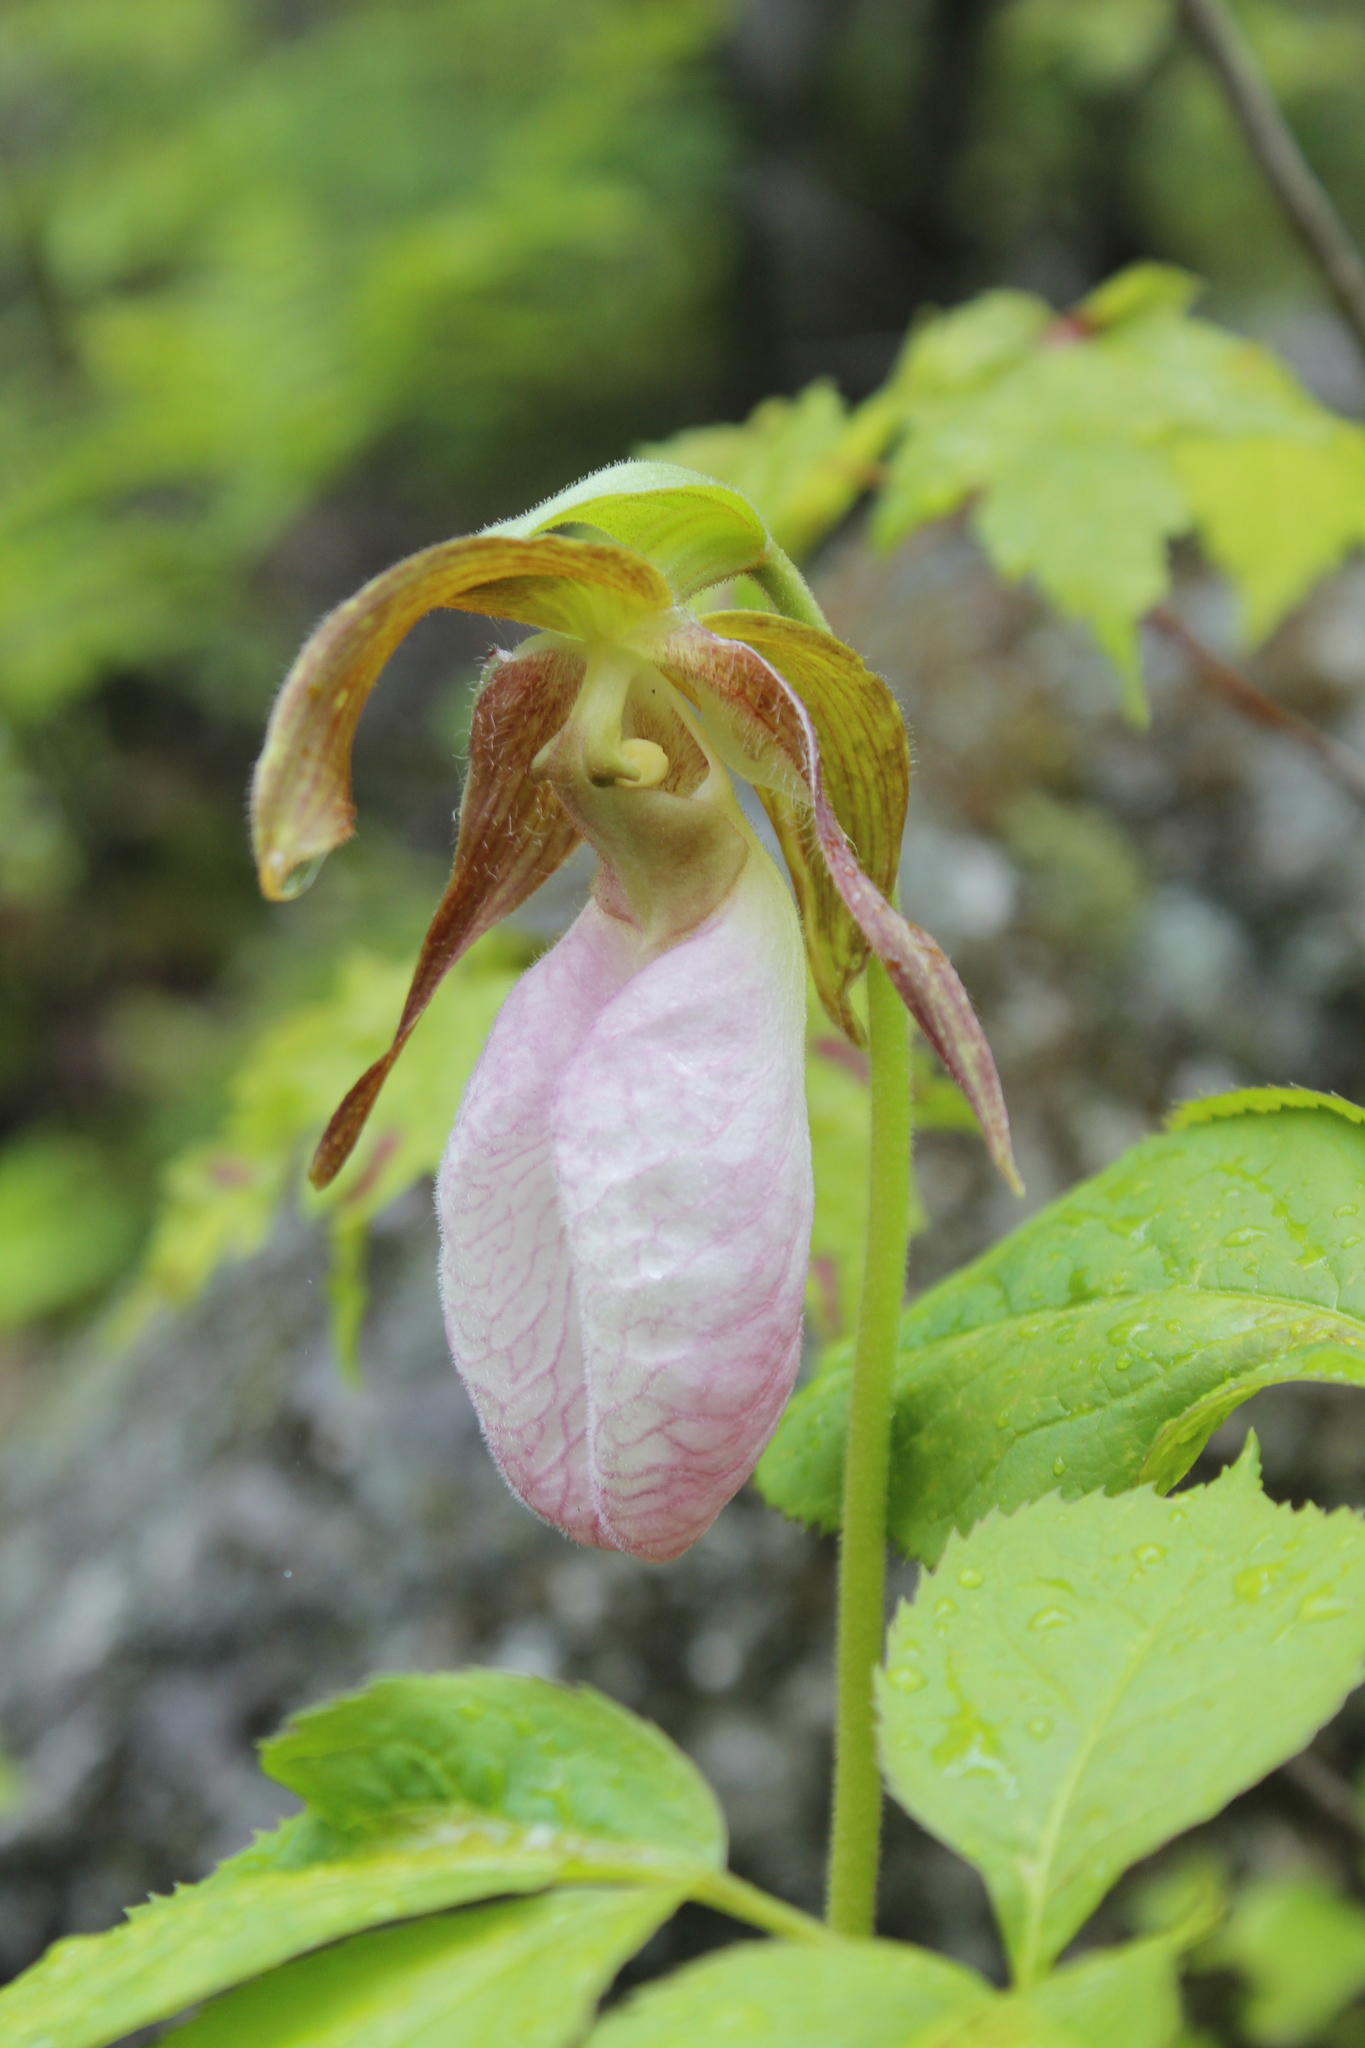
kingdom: Plantae
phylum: Tracheophyta
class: Liliopsida
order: Asparagales
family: Orchidaceae
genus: Cypripedium
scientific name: Cypripedium acaule
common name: Pink lady's-slipper
